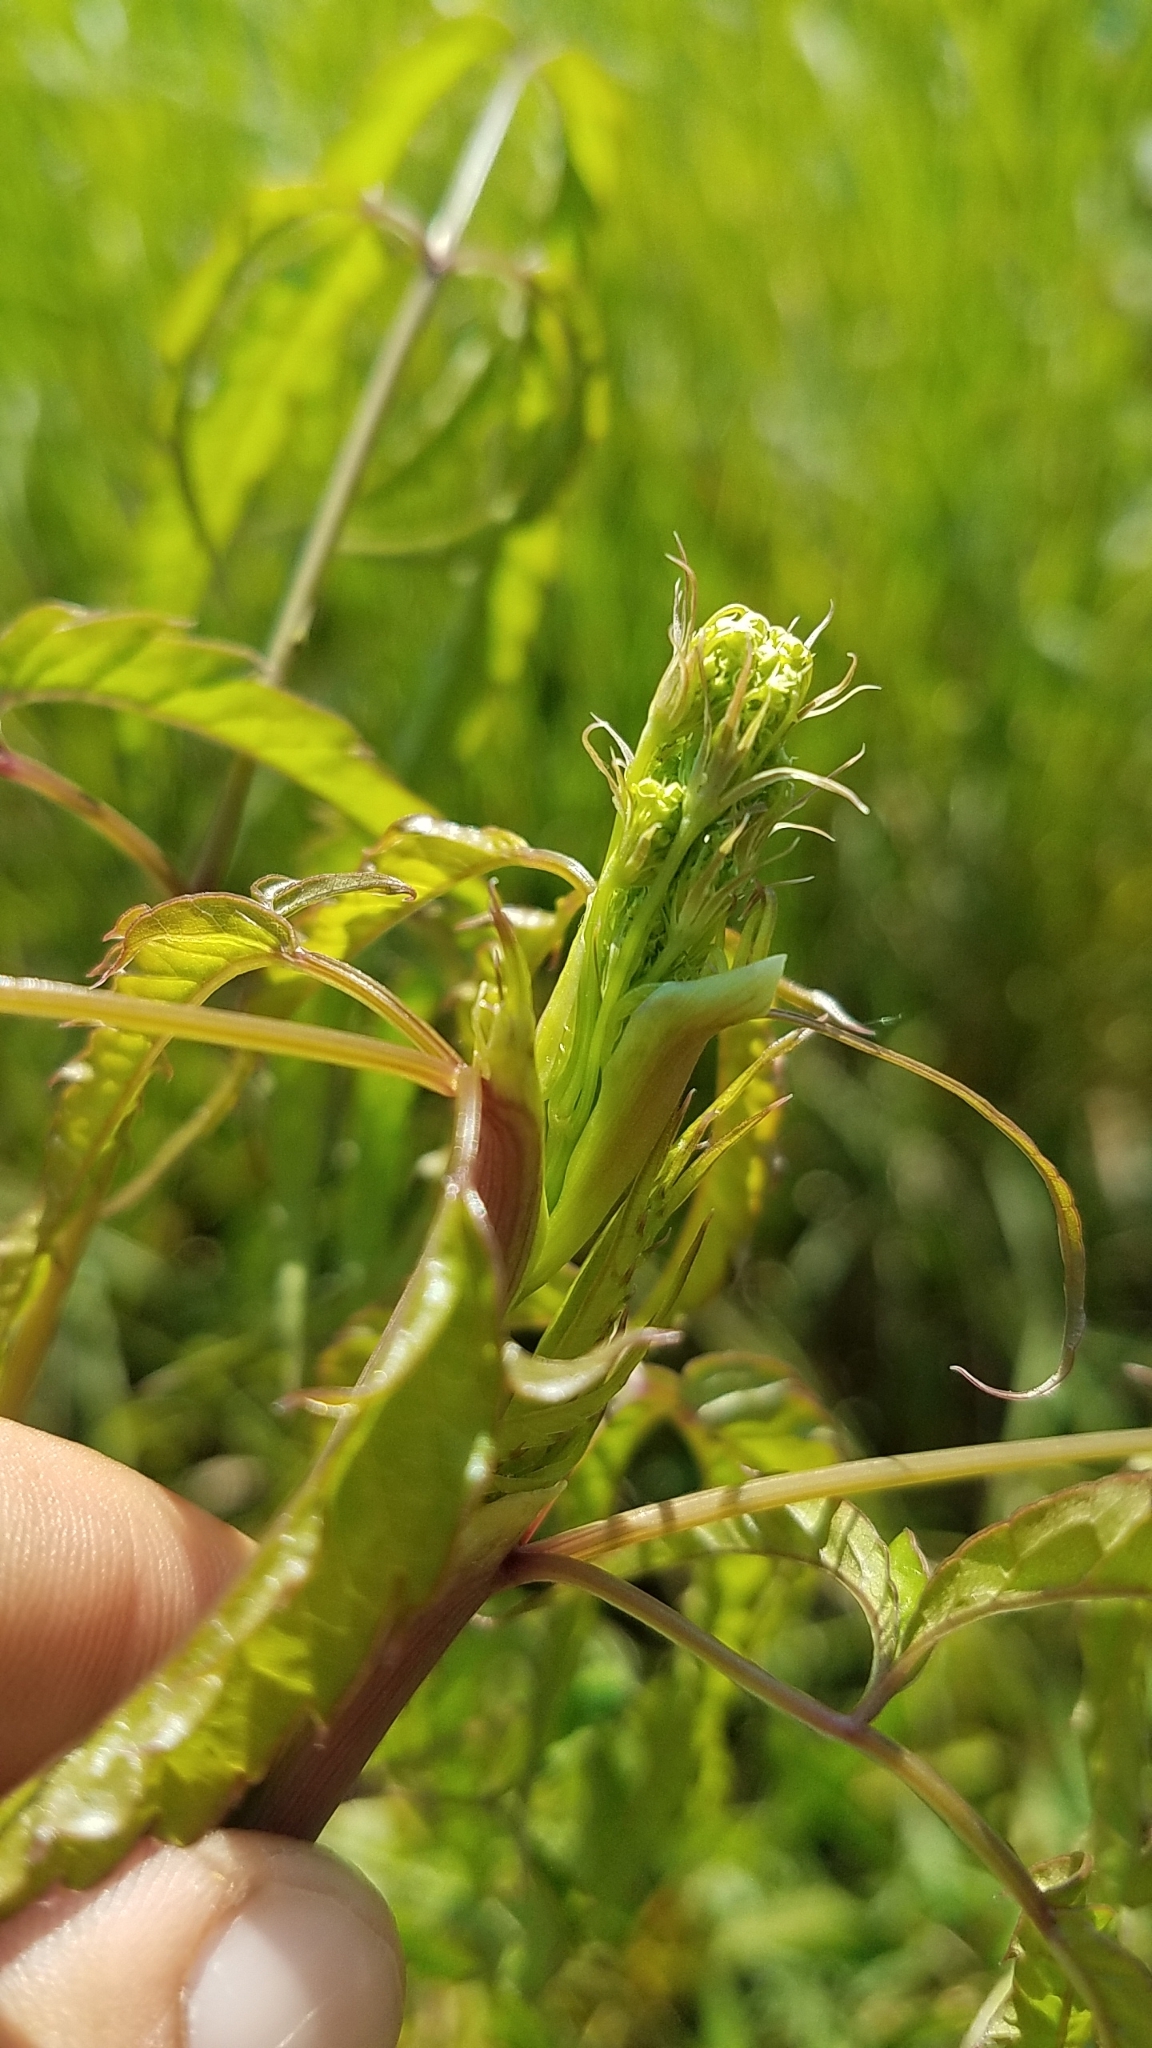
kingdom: Plantae
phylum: Tracheophyta
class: Magnoliopsida
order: Apiales
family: Apiaceae
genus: Cicuta
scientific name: Cicuta maculata
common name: Spotted cowbane
